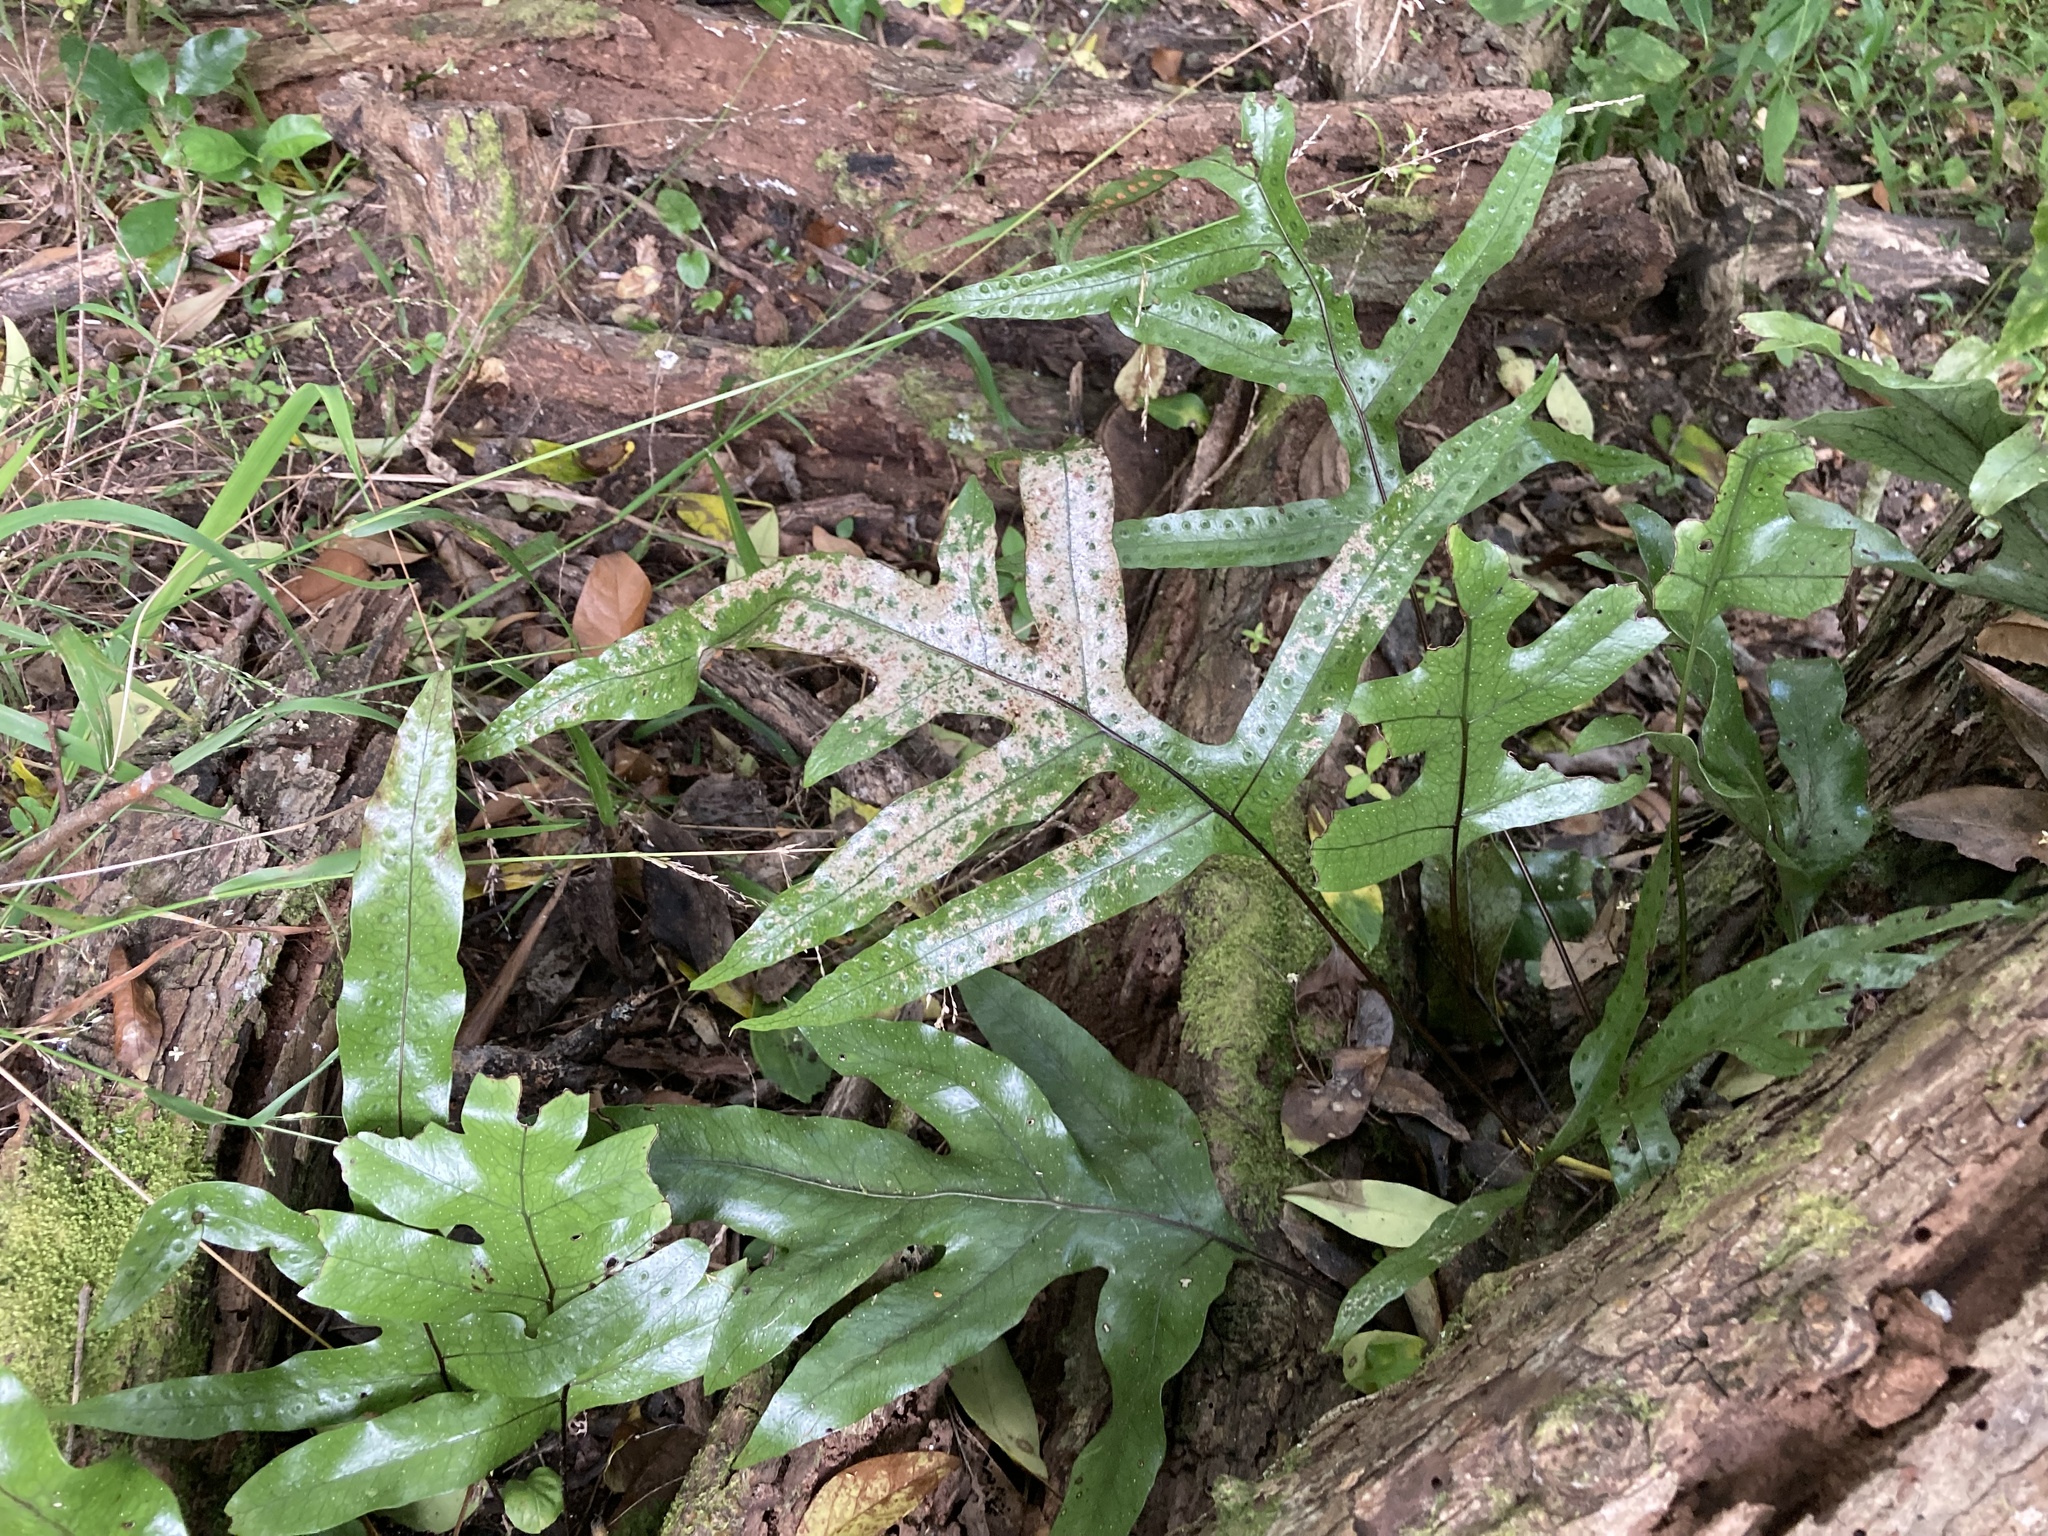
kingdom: Plantae
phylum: Tracheophyta
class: Polypodiopsida
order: Polypodiales
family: Polypodiaceae
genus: Lecanopteris
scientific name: Lecanopteris pustulata
